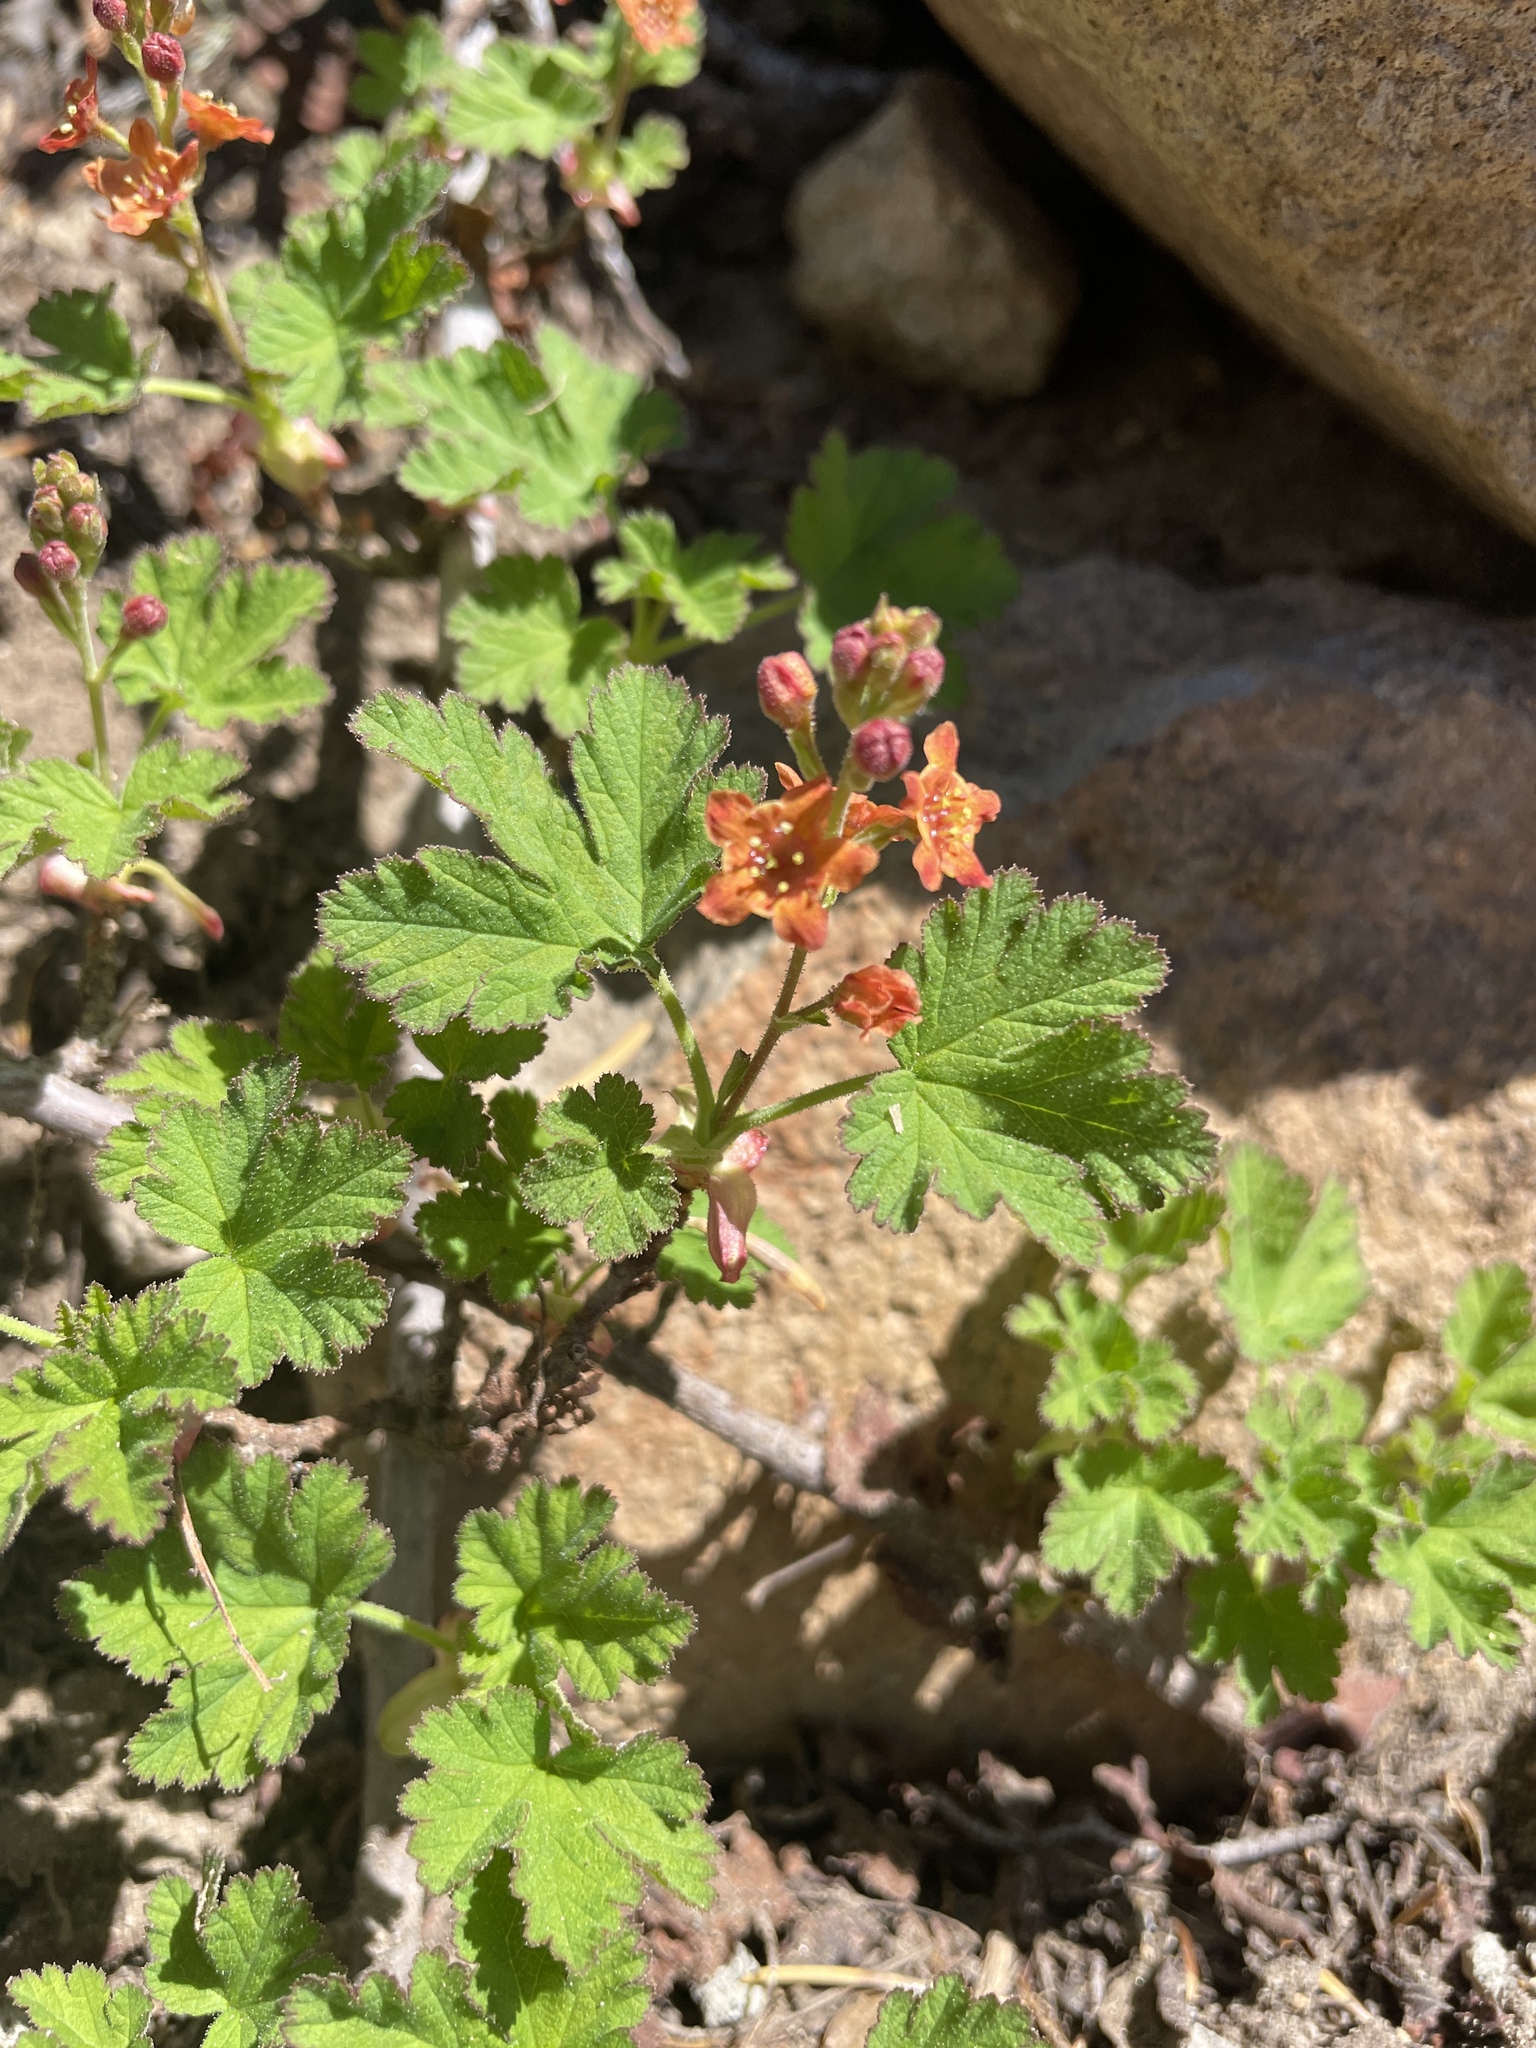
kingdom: Plantae
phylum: Tracheophyta
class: Magnoliopsida
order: Saxifragales
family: Grossulariaceae
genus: Ribes
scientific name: Ribes erythrocarpum
